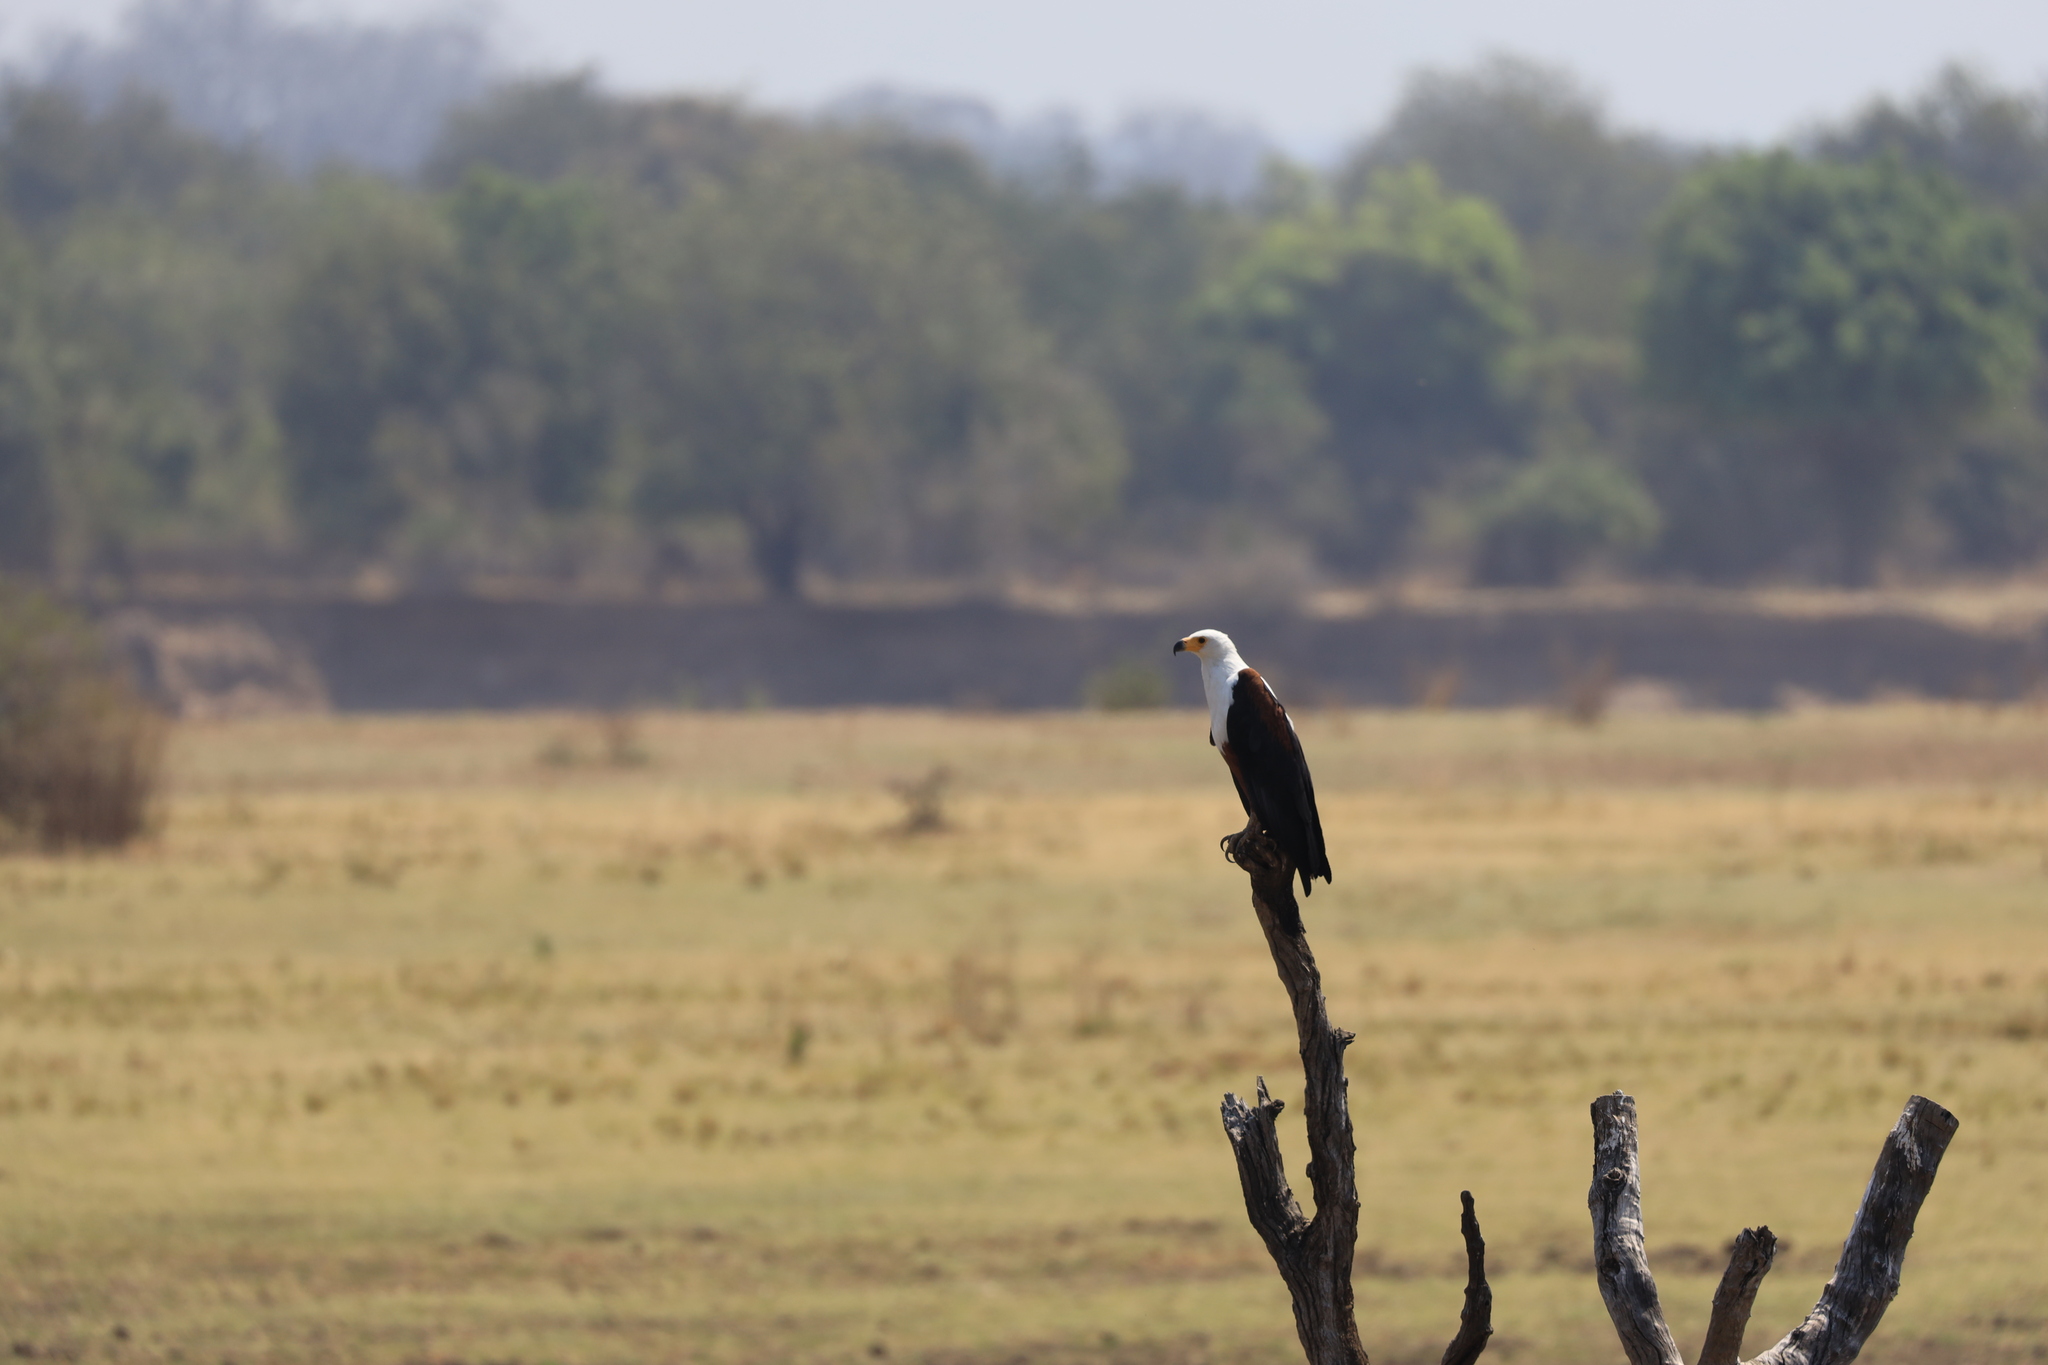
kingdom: Animalia
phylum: Chordata
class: Aves
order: Accipitriformes
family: Accipitridae
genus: Haliaeetus
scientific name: Haliaeetus vocifer
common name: African fish eagle
